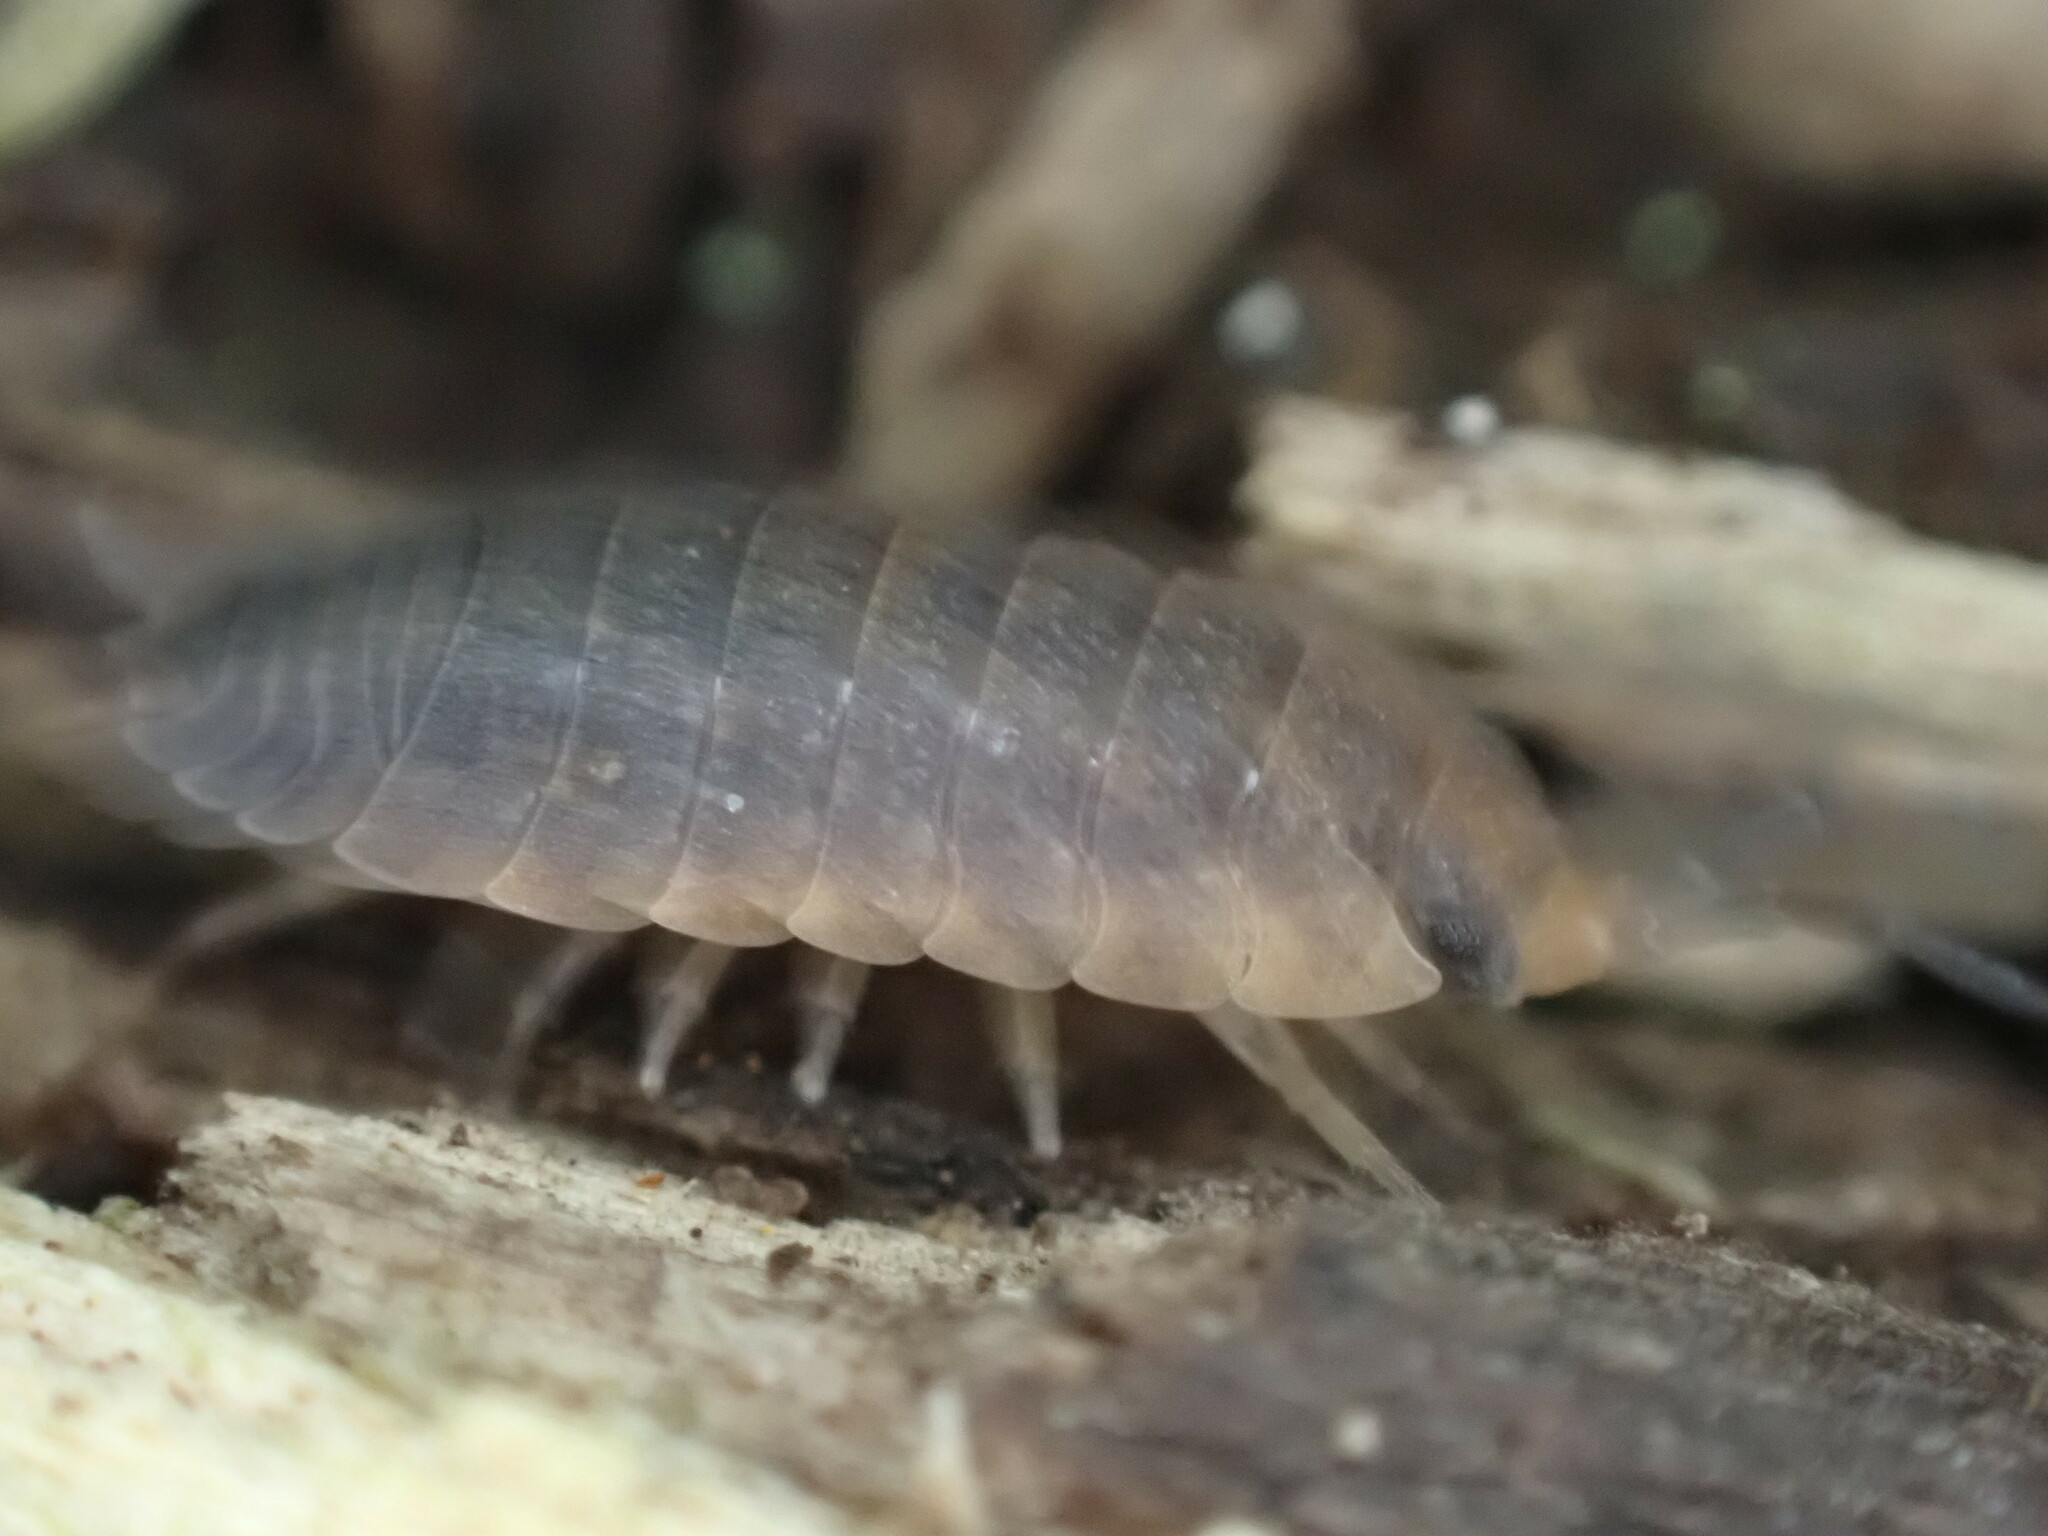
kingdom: Animalia
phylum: Arthropoda
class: Malacostraca
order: Isopoda
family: Porcellionidae
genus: Porcellio
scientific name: Porcellio scaber
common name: Common rough woodlouse
